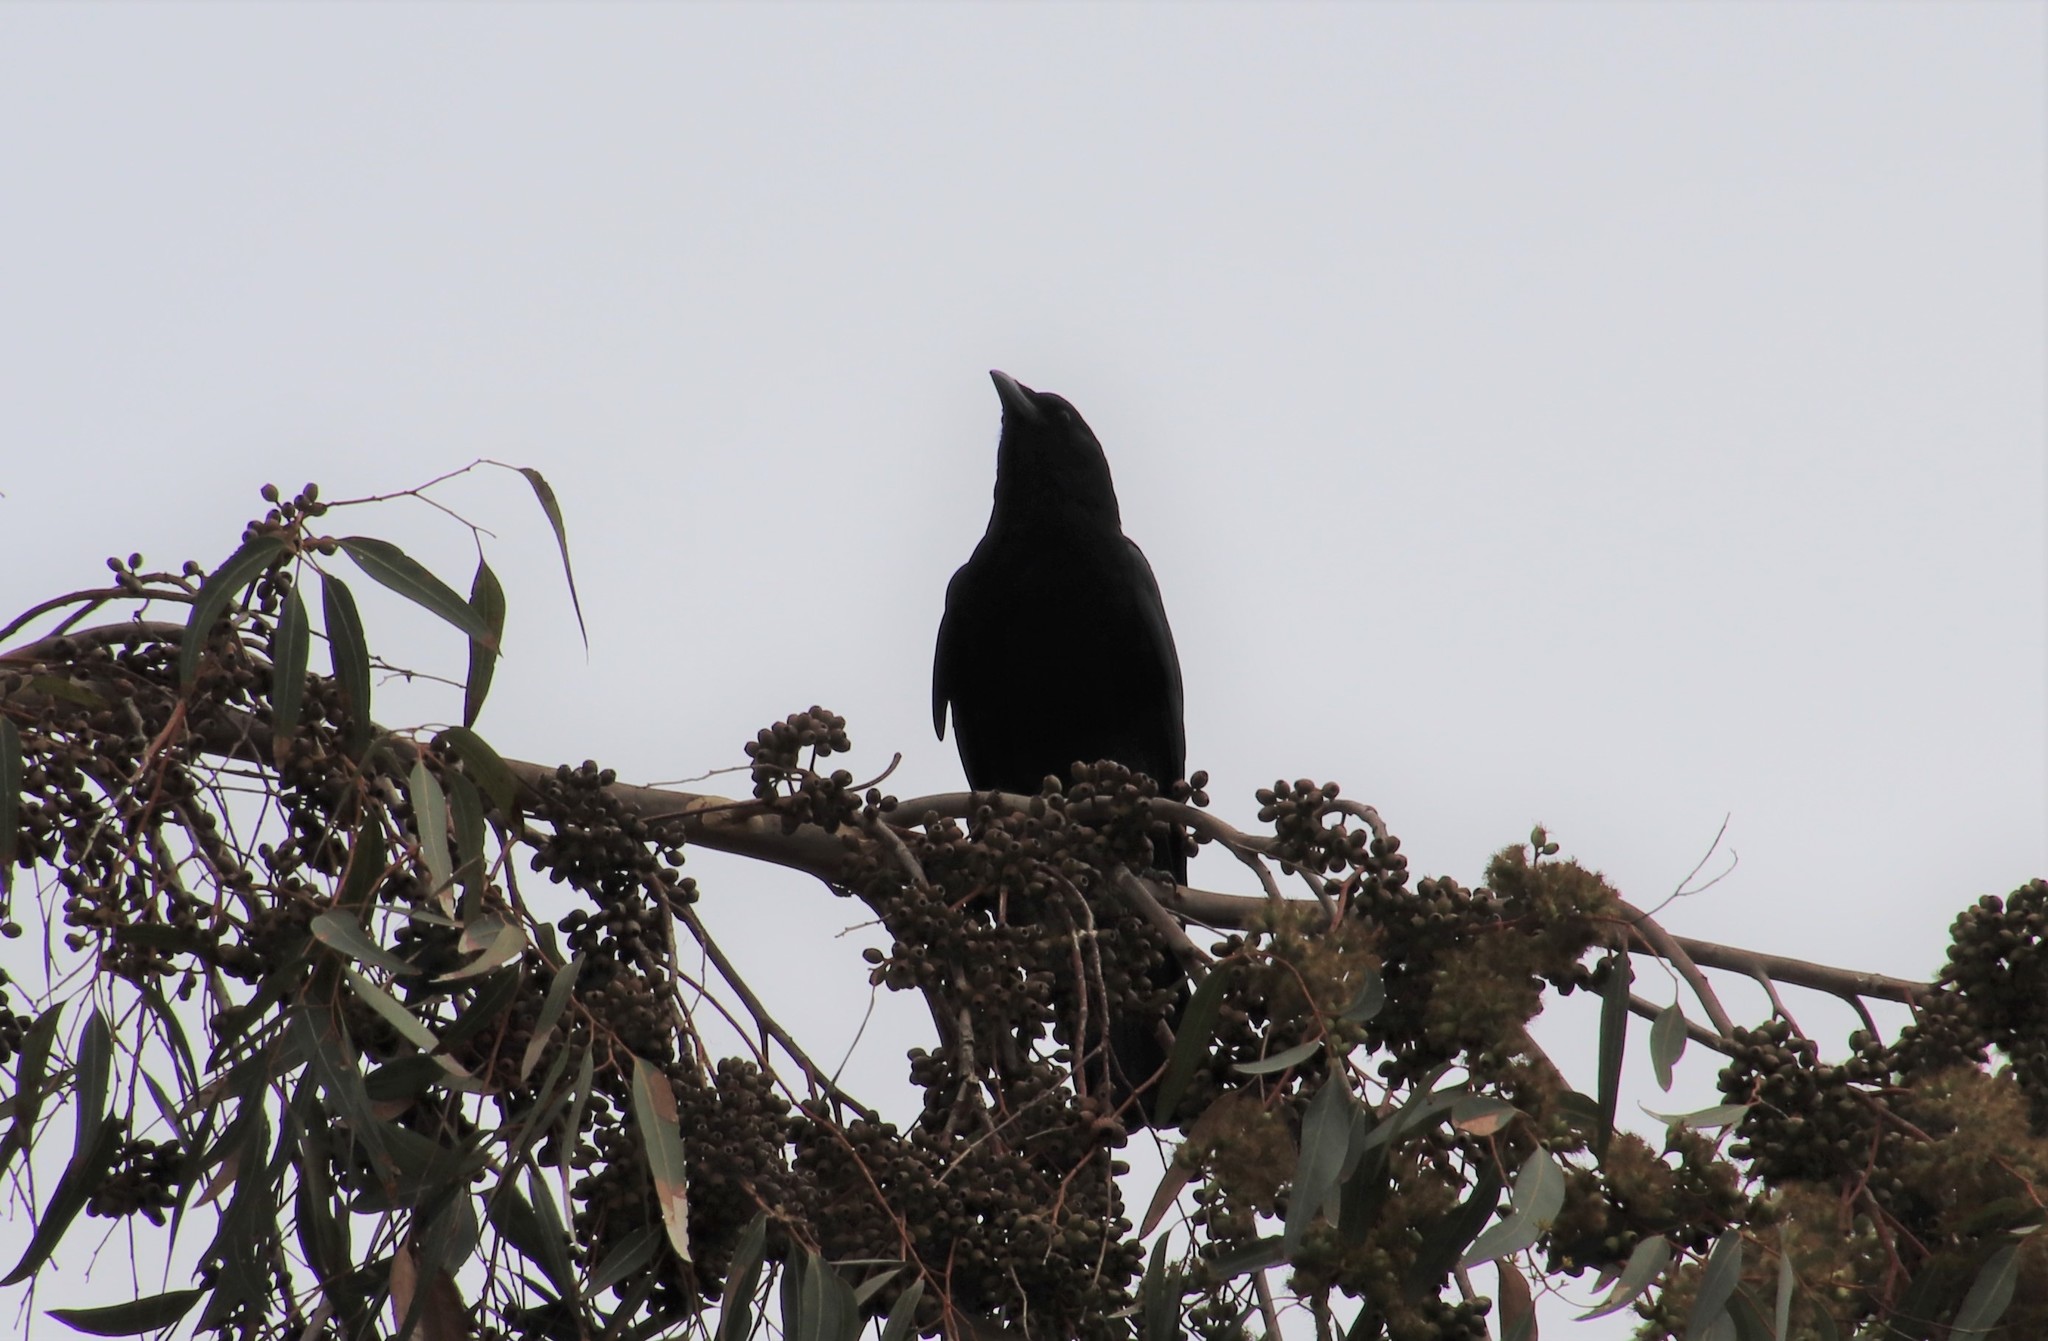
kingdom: Animalia
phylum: Chordata
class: Aves
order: Passeriformes
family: Corvidae
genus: Corvus
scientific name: Corvus brachyrhynchos
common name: American crow
